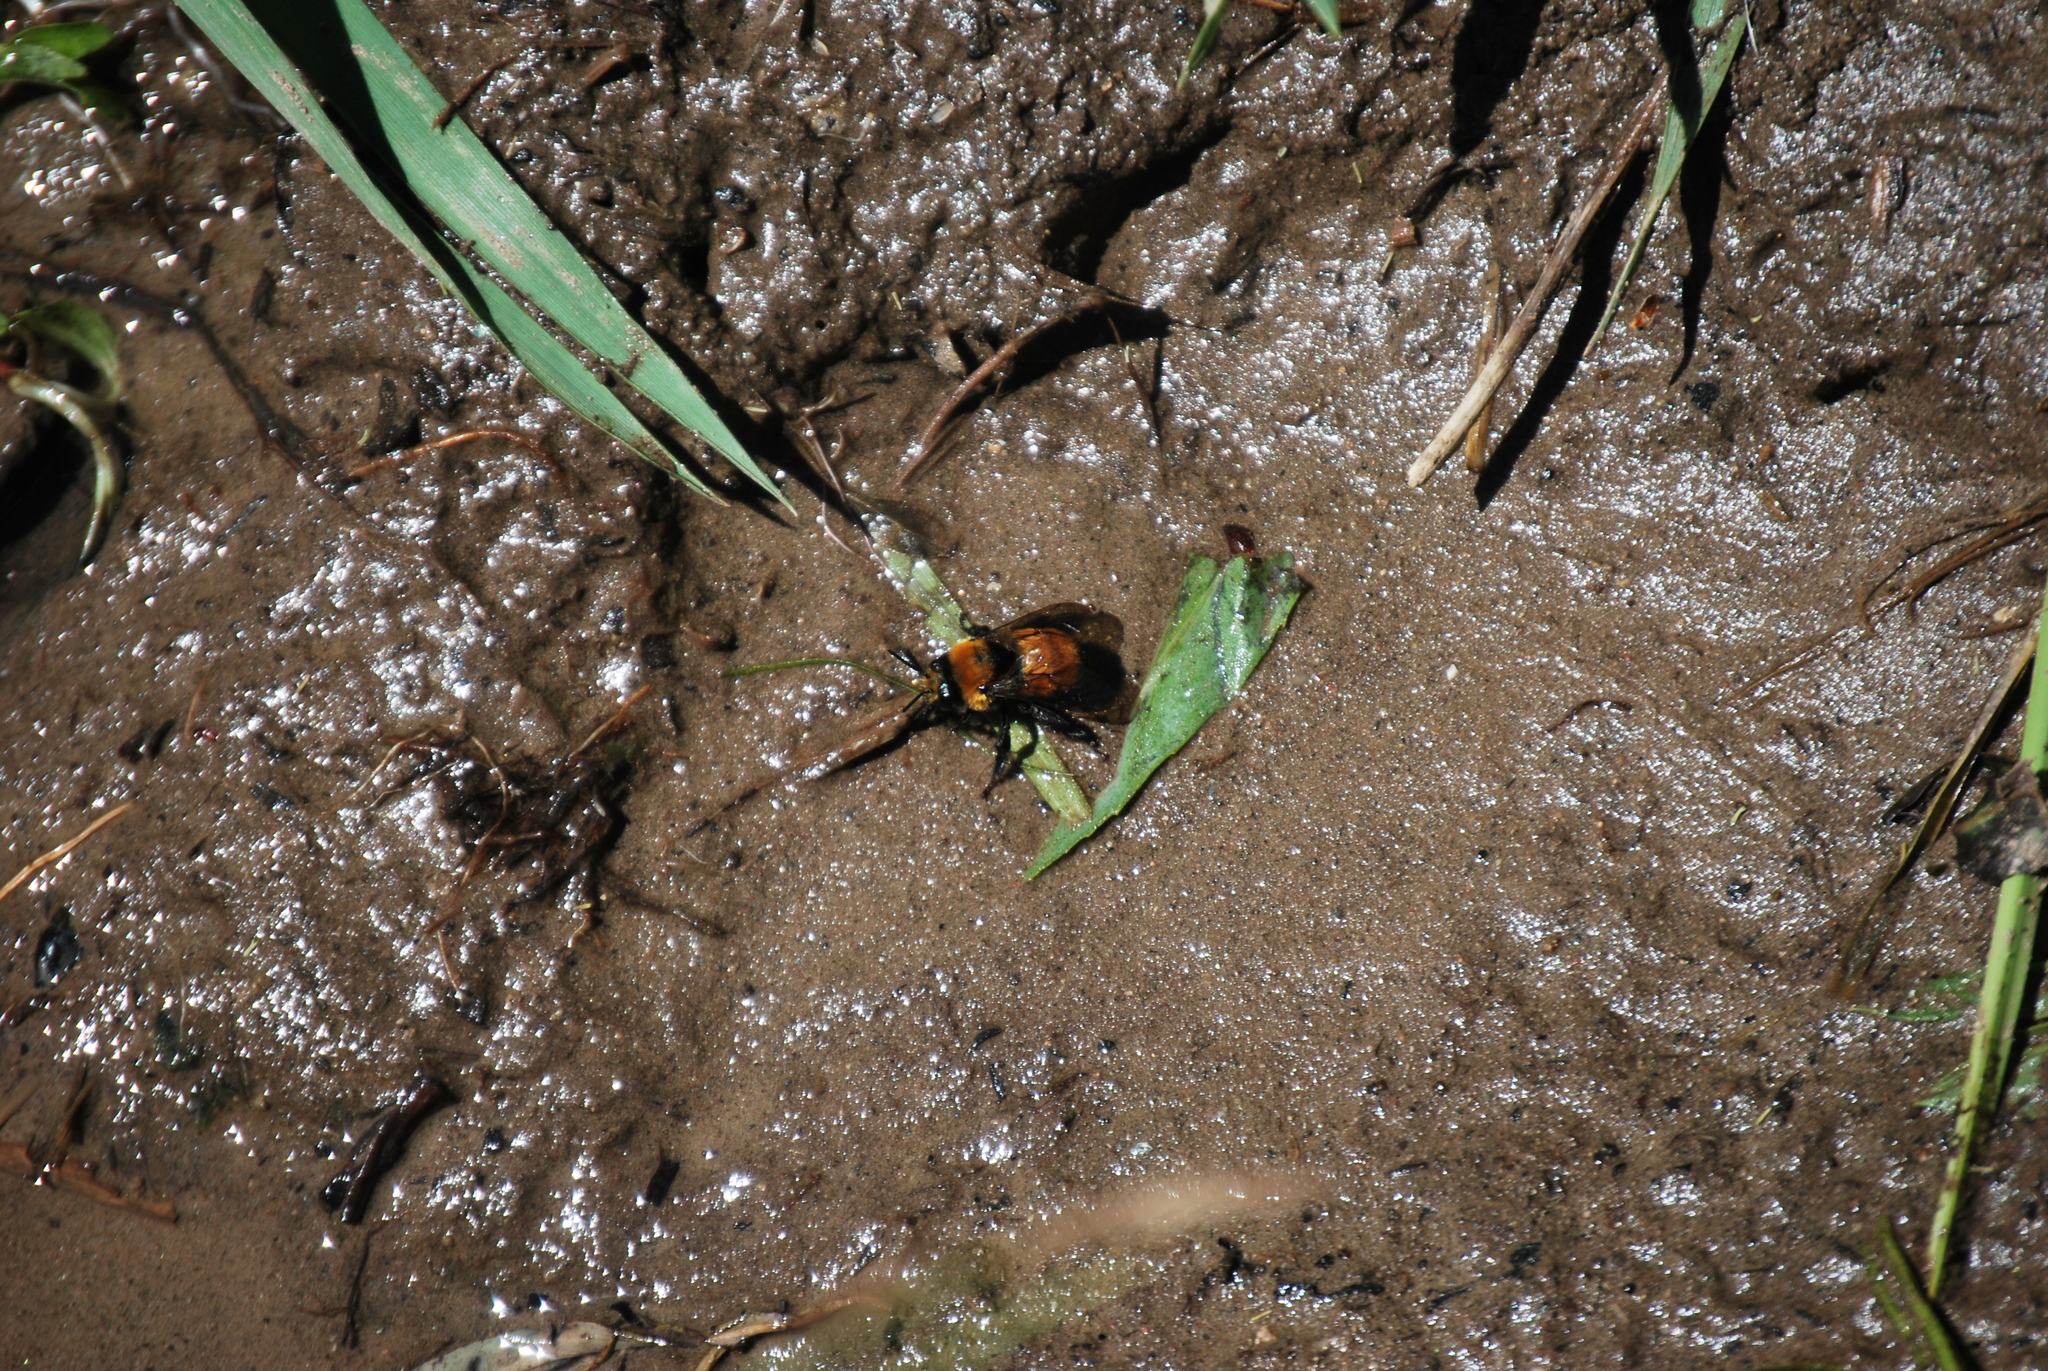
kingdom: Animalia
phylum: Arthropoda
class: Insecta
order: Hymenoptera
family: Apidae
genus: Anthophora
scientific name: Anthophora bomboides
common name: Bumble-bee-mimic digger bee
